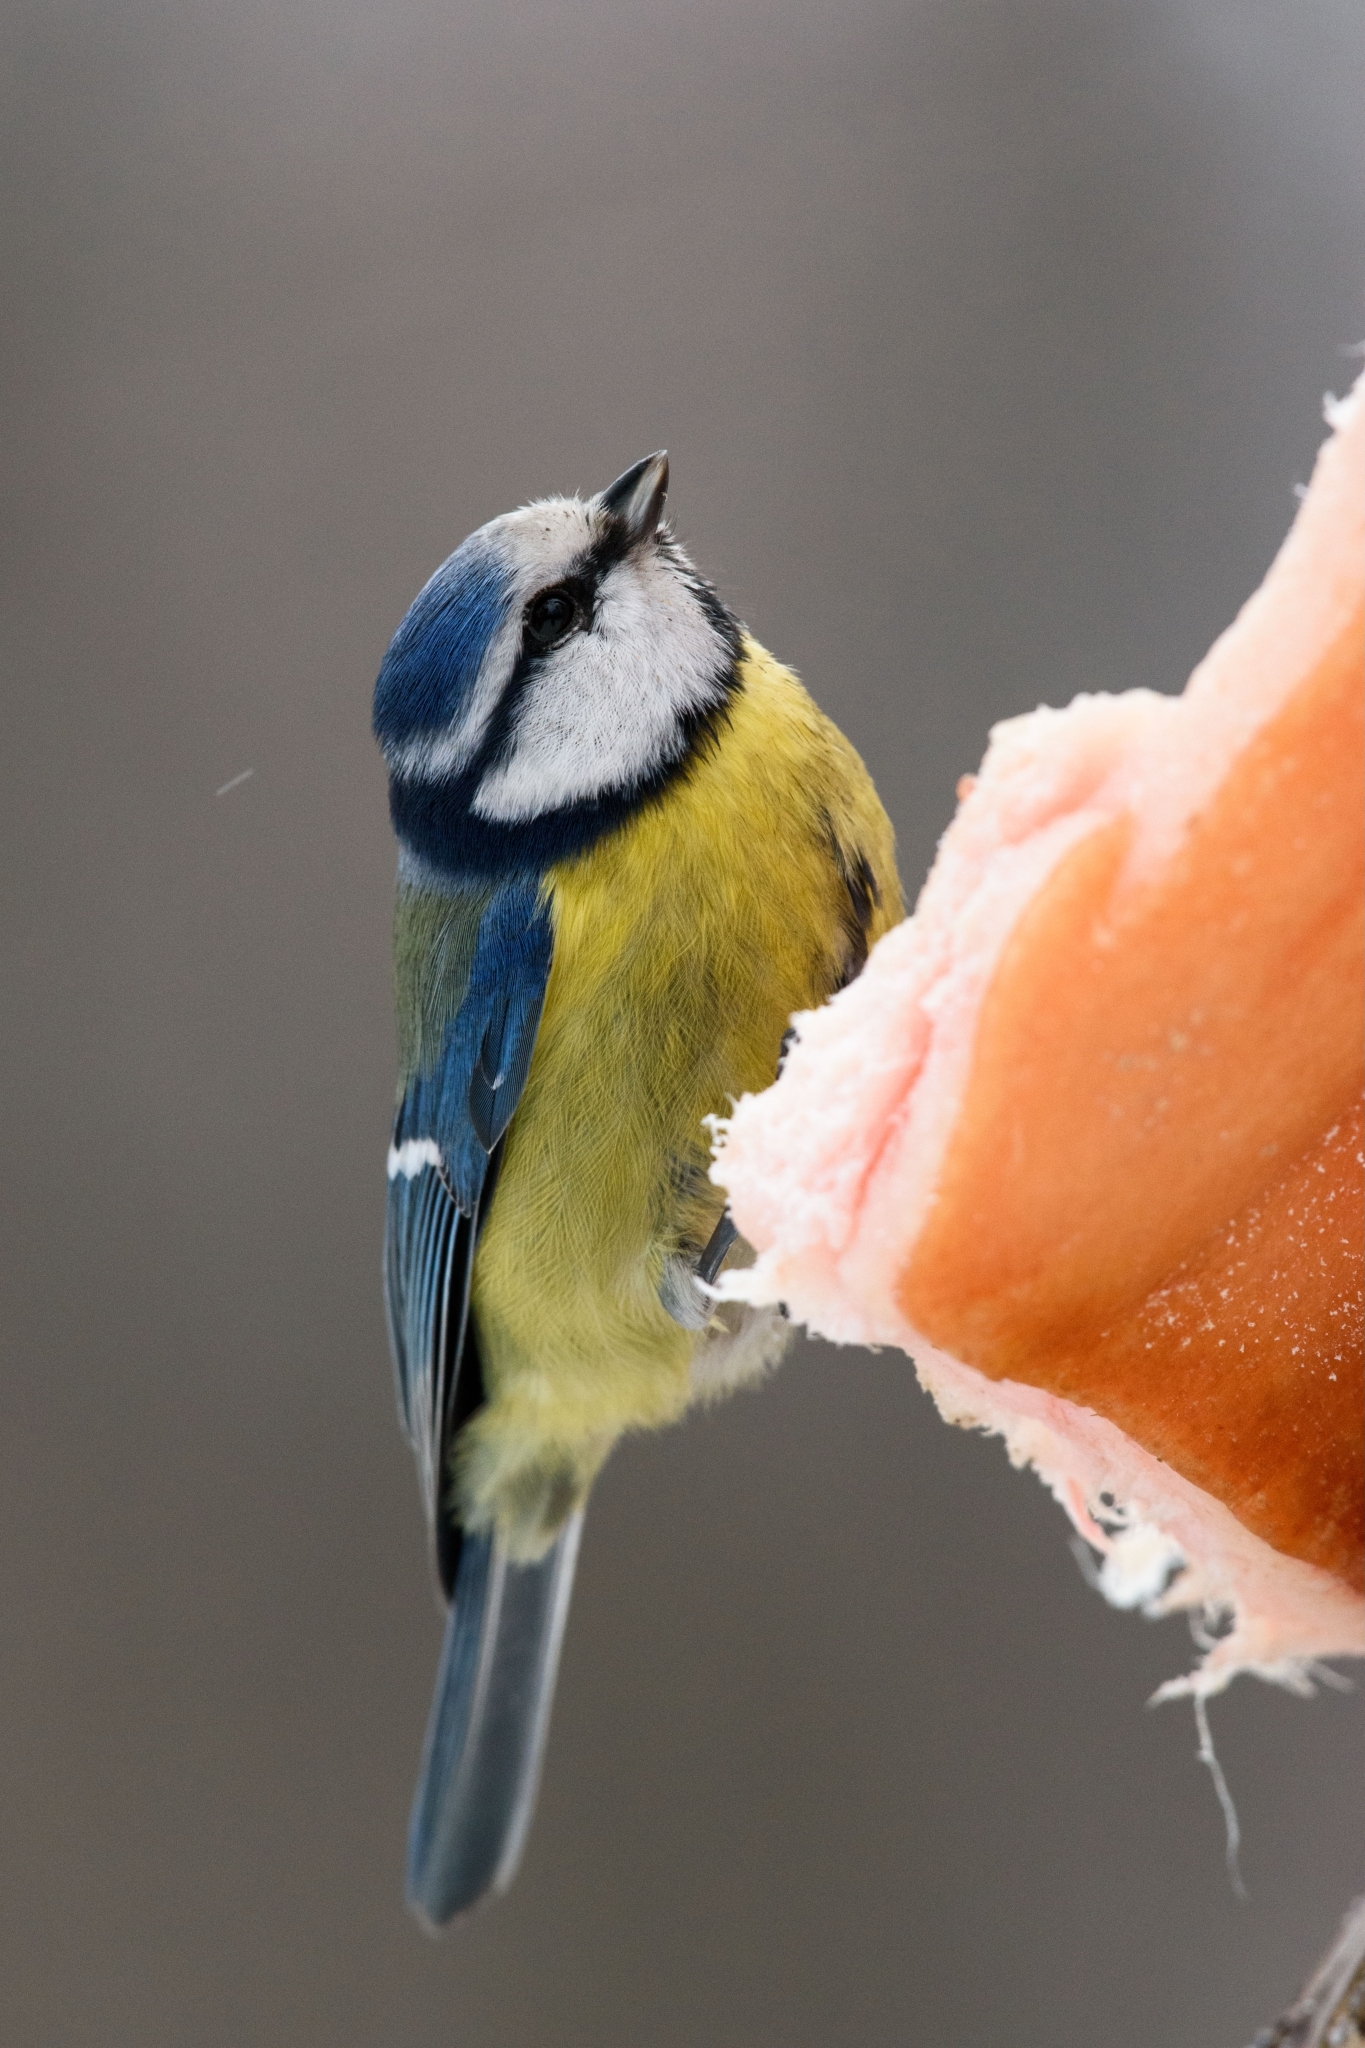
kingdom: Animalia
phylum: Chordata
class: Aves
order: Passeriformes
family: Paridae
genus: Cyanistes
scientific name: Cyanistes caeruleus
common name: Eurasian blue tit
